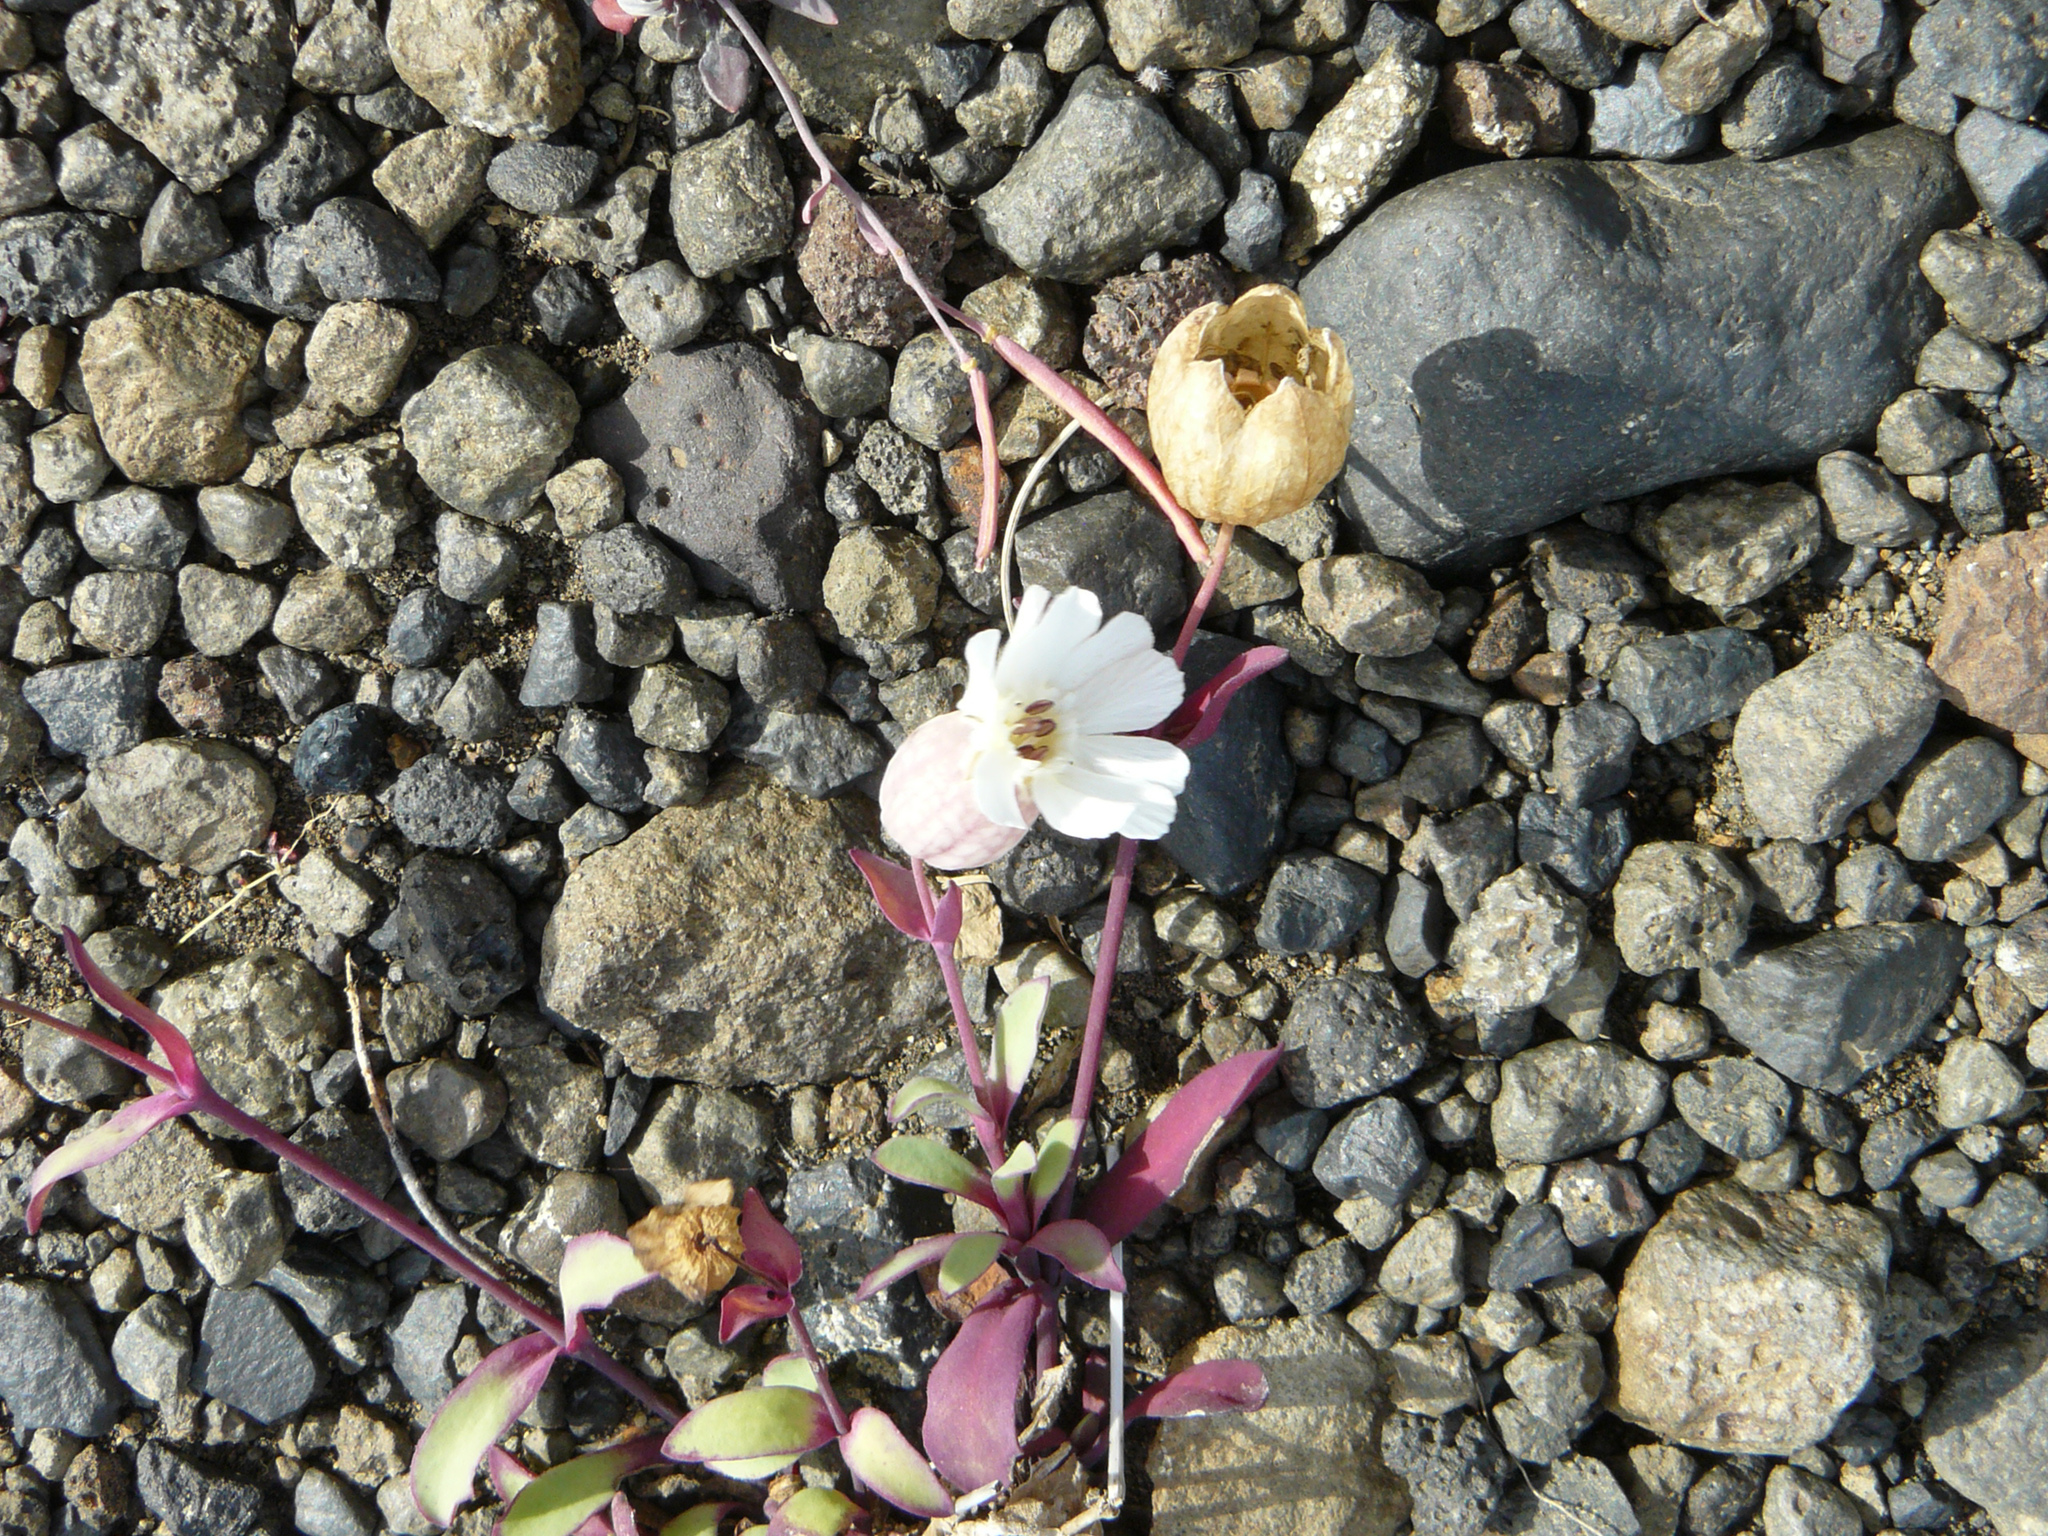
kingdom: Plantae
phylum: Tracheophyta
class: Magnoliopsida
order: Caryophyllales
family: Caryophyllaceae
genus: Silene
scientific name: Silene uniflora
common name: Sea campion
